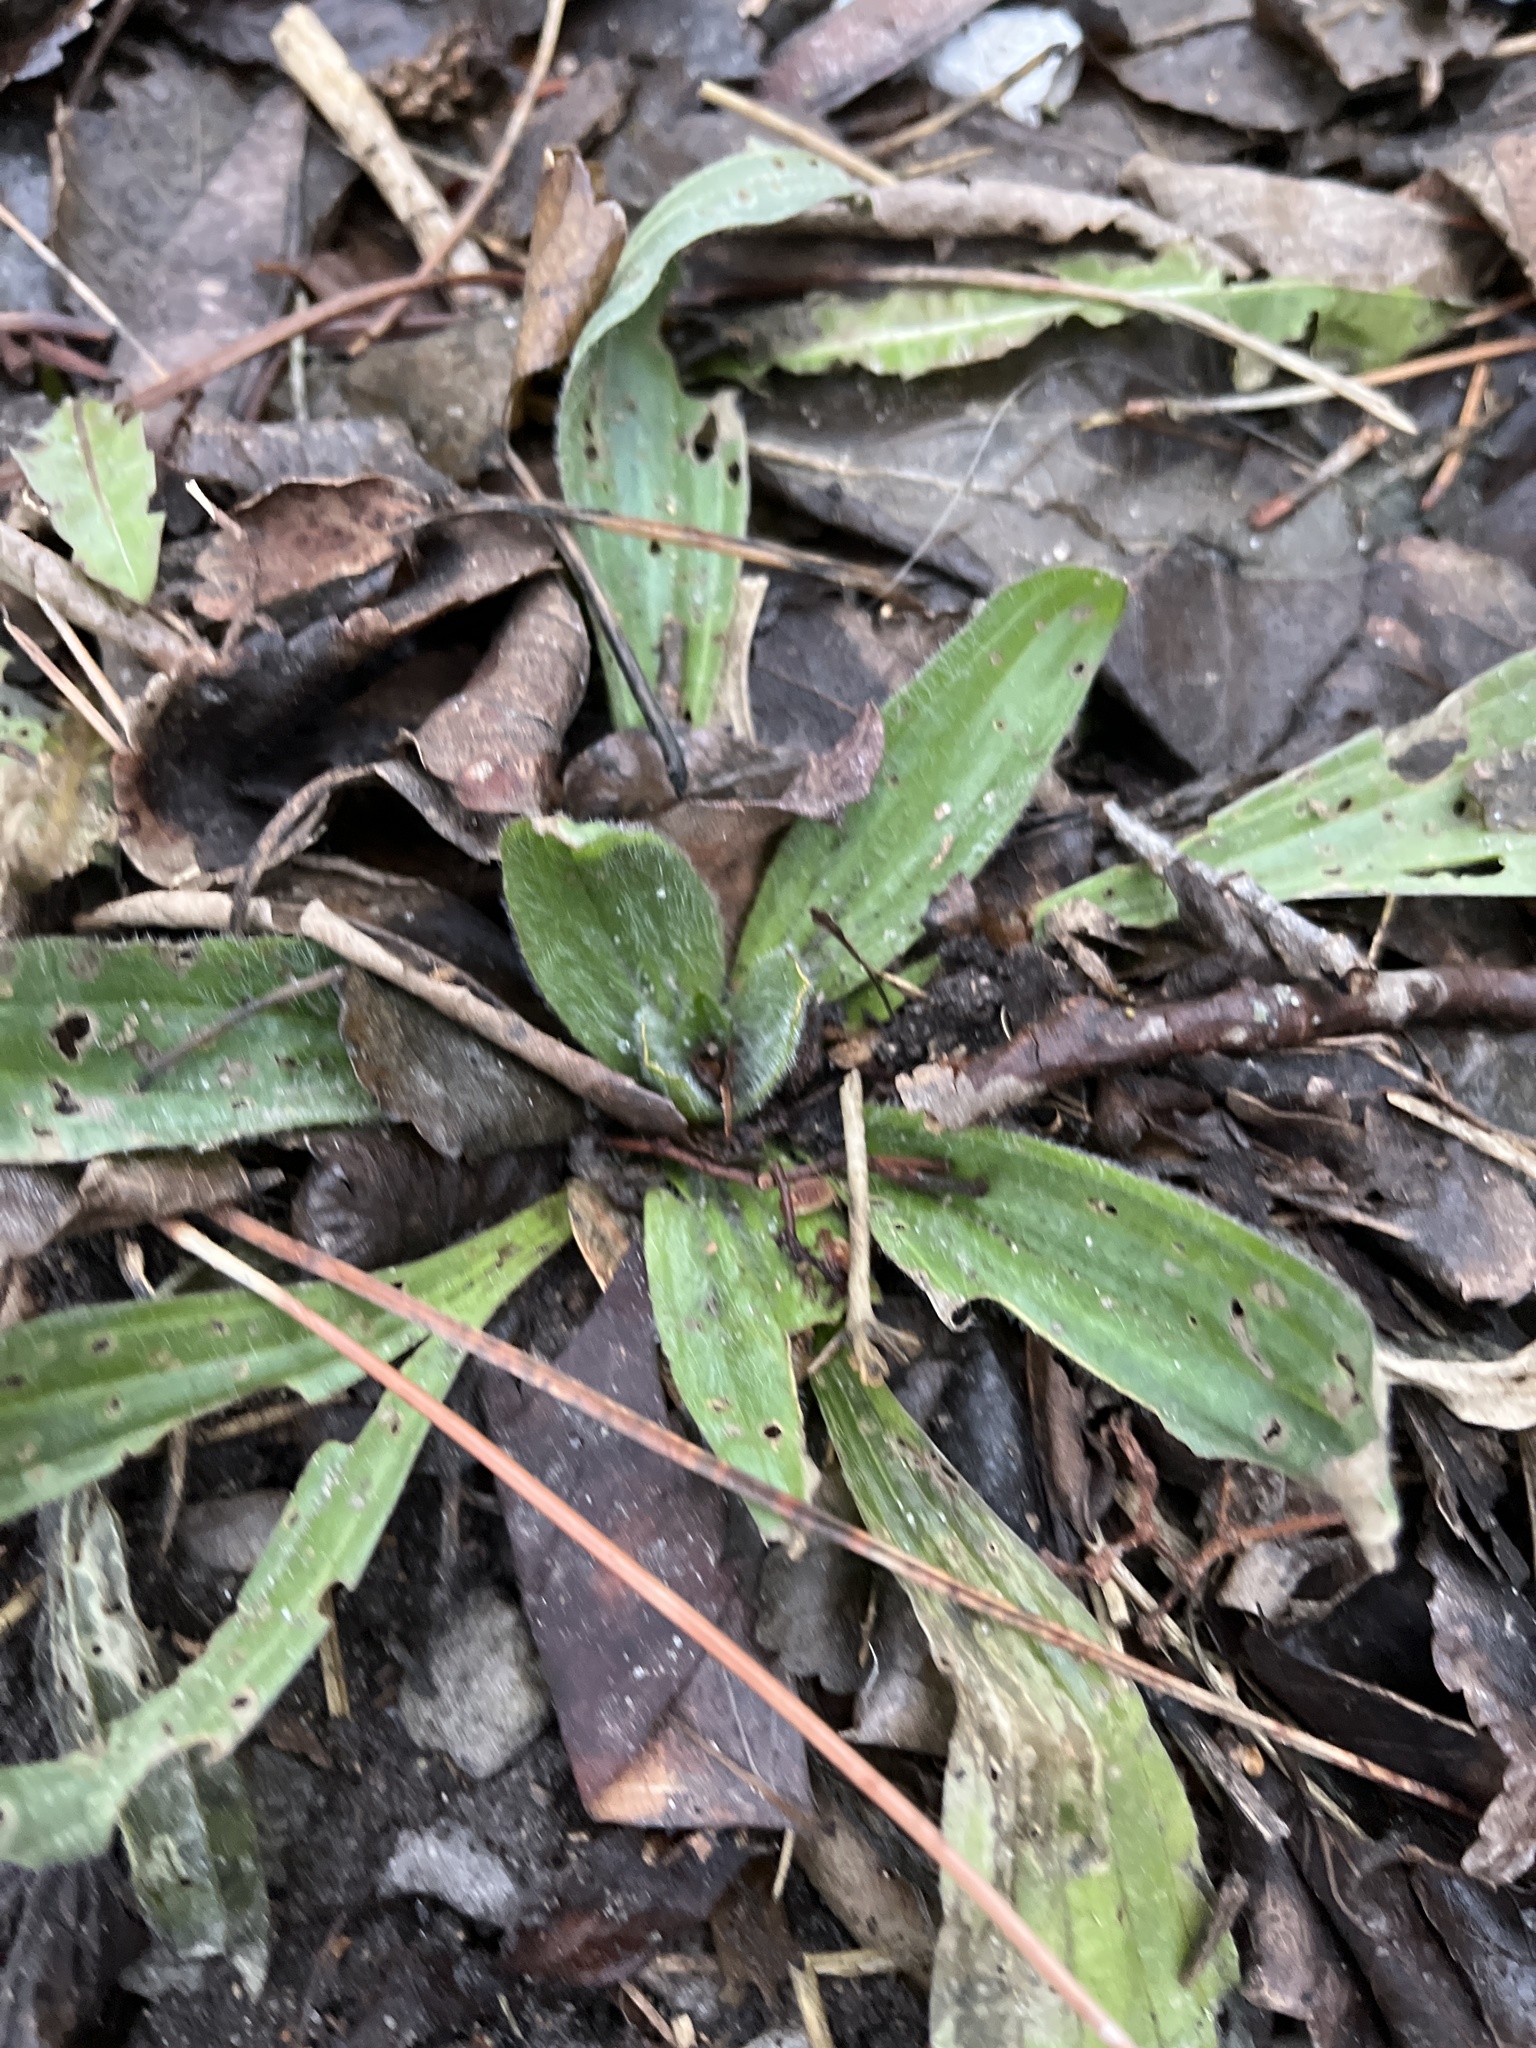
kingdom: Plantae
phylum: Tracheophyta
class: Magnoliopsida
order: Lamiales
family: Plantaginaceae
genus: Plantago
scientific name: Plantago lanceolata
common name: Ribwort plantain
